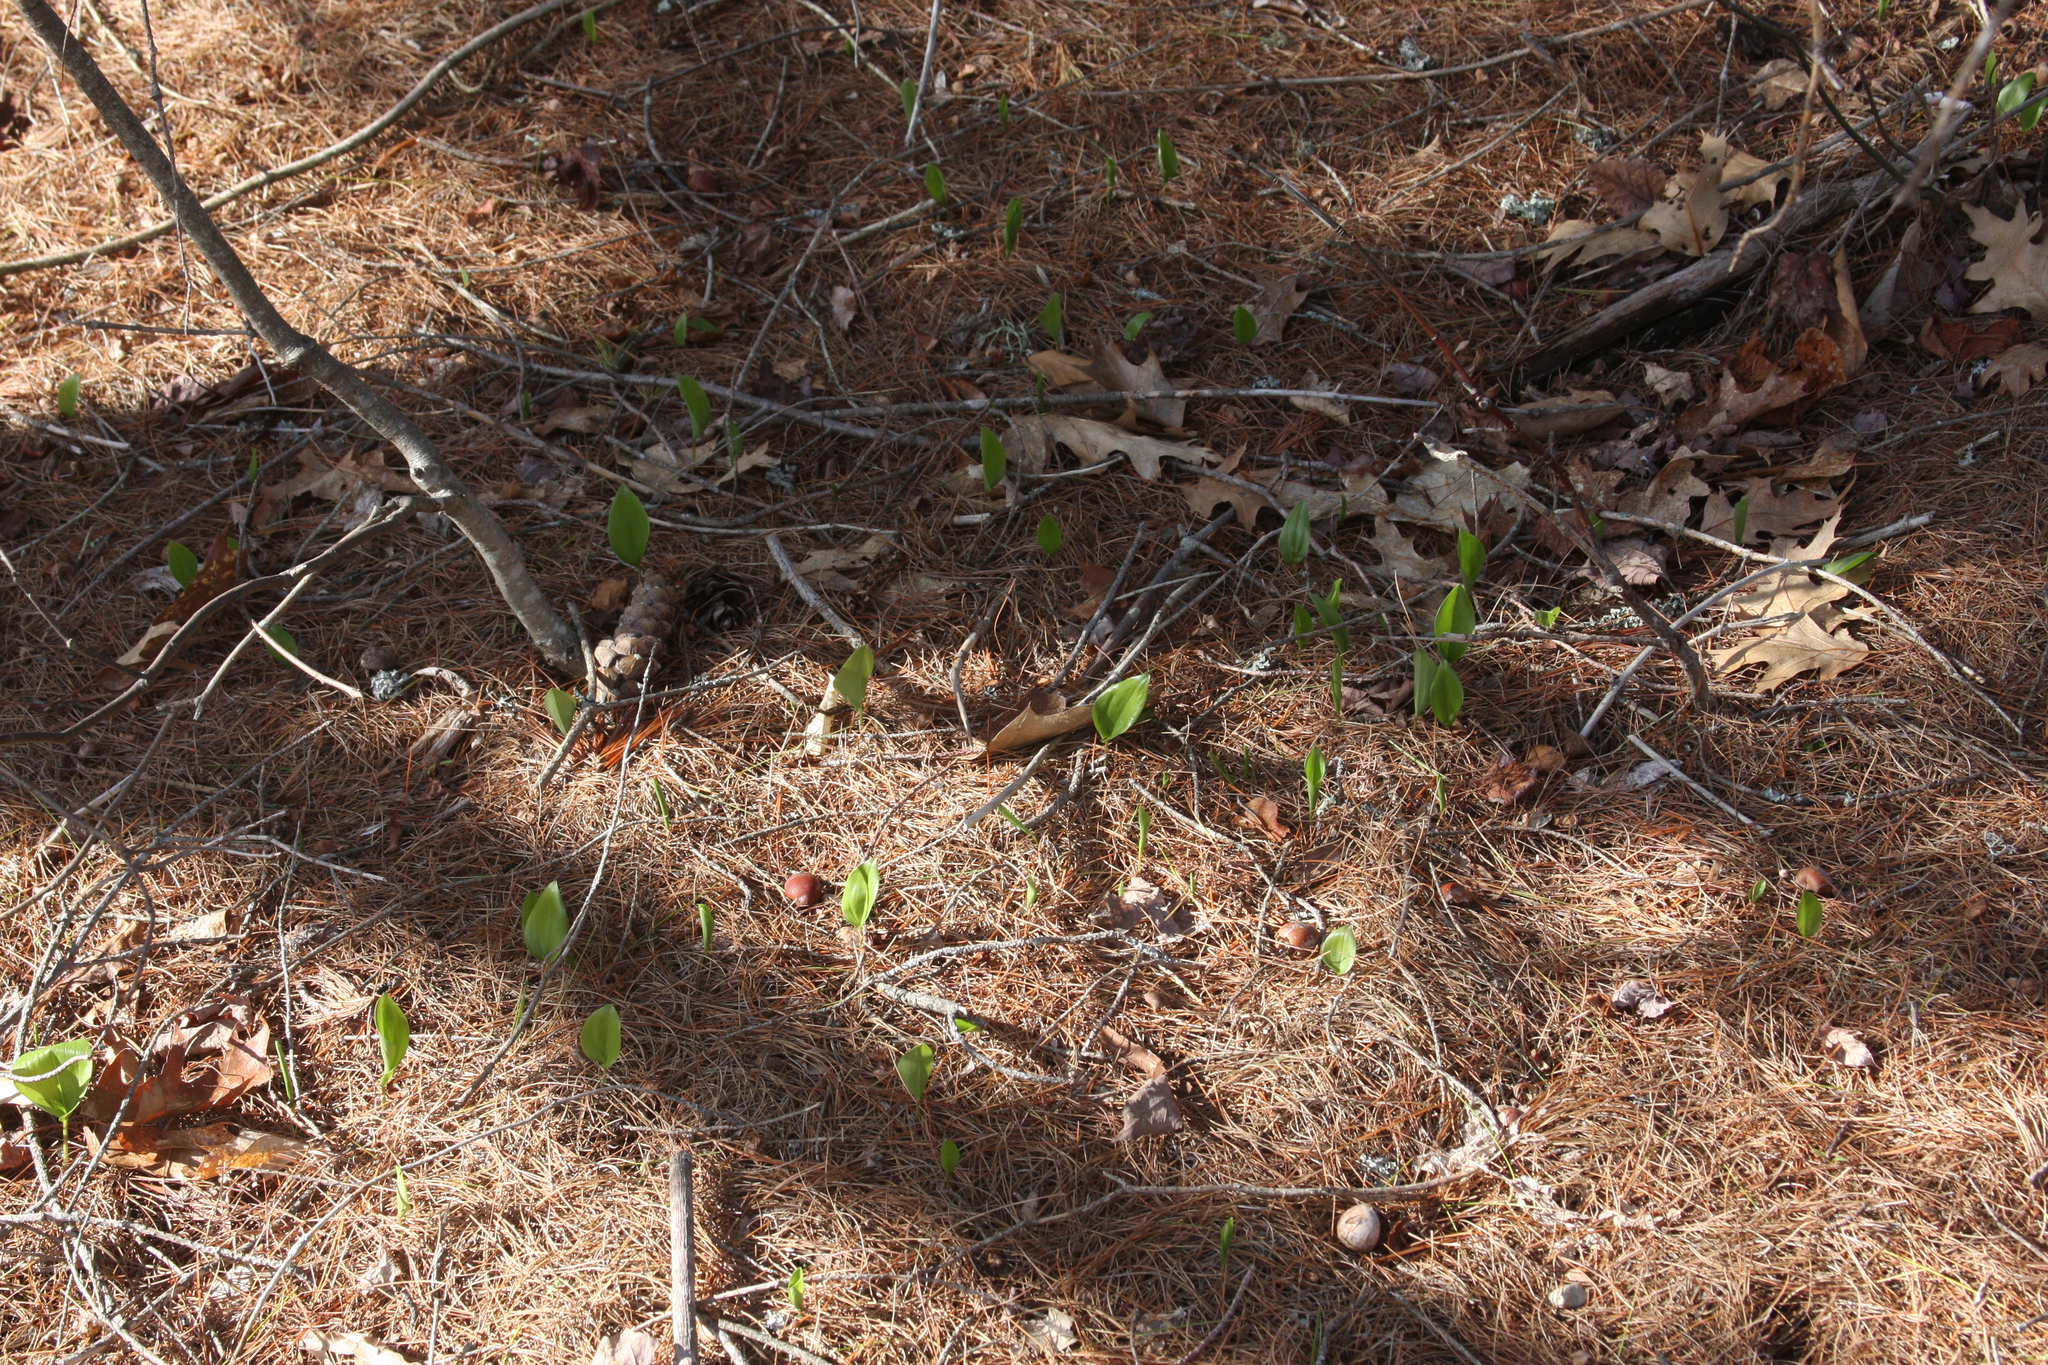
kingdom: Plantae
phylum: Tracheophyta
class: Liliopsida
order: Asparagales
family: Asparagaceae
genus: Maianthemum
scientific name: Maianthemum canadense
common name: False lily-of-the-valley
